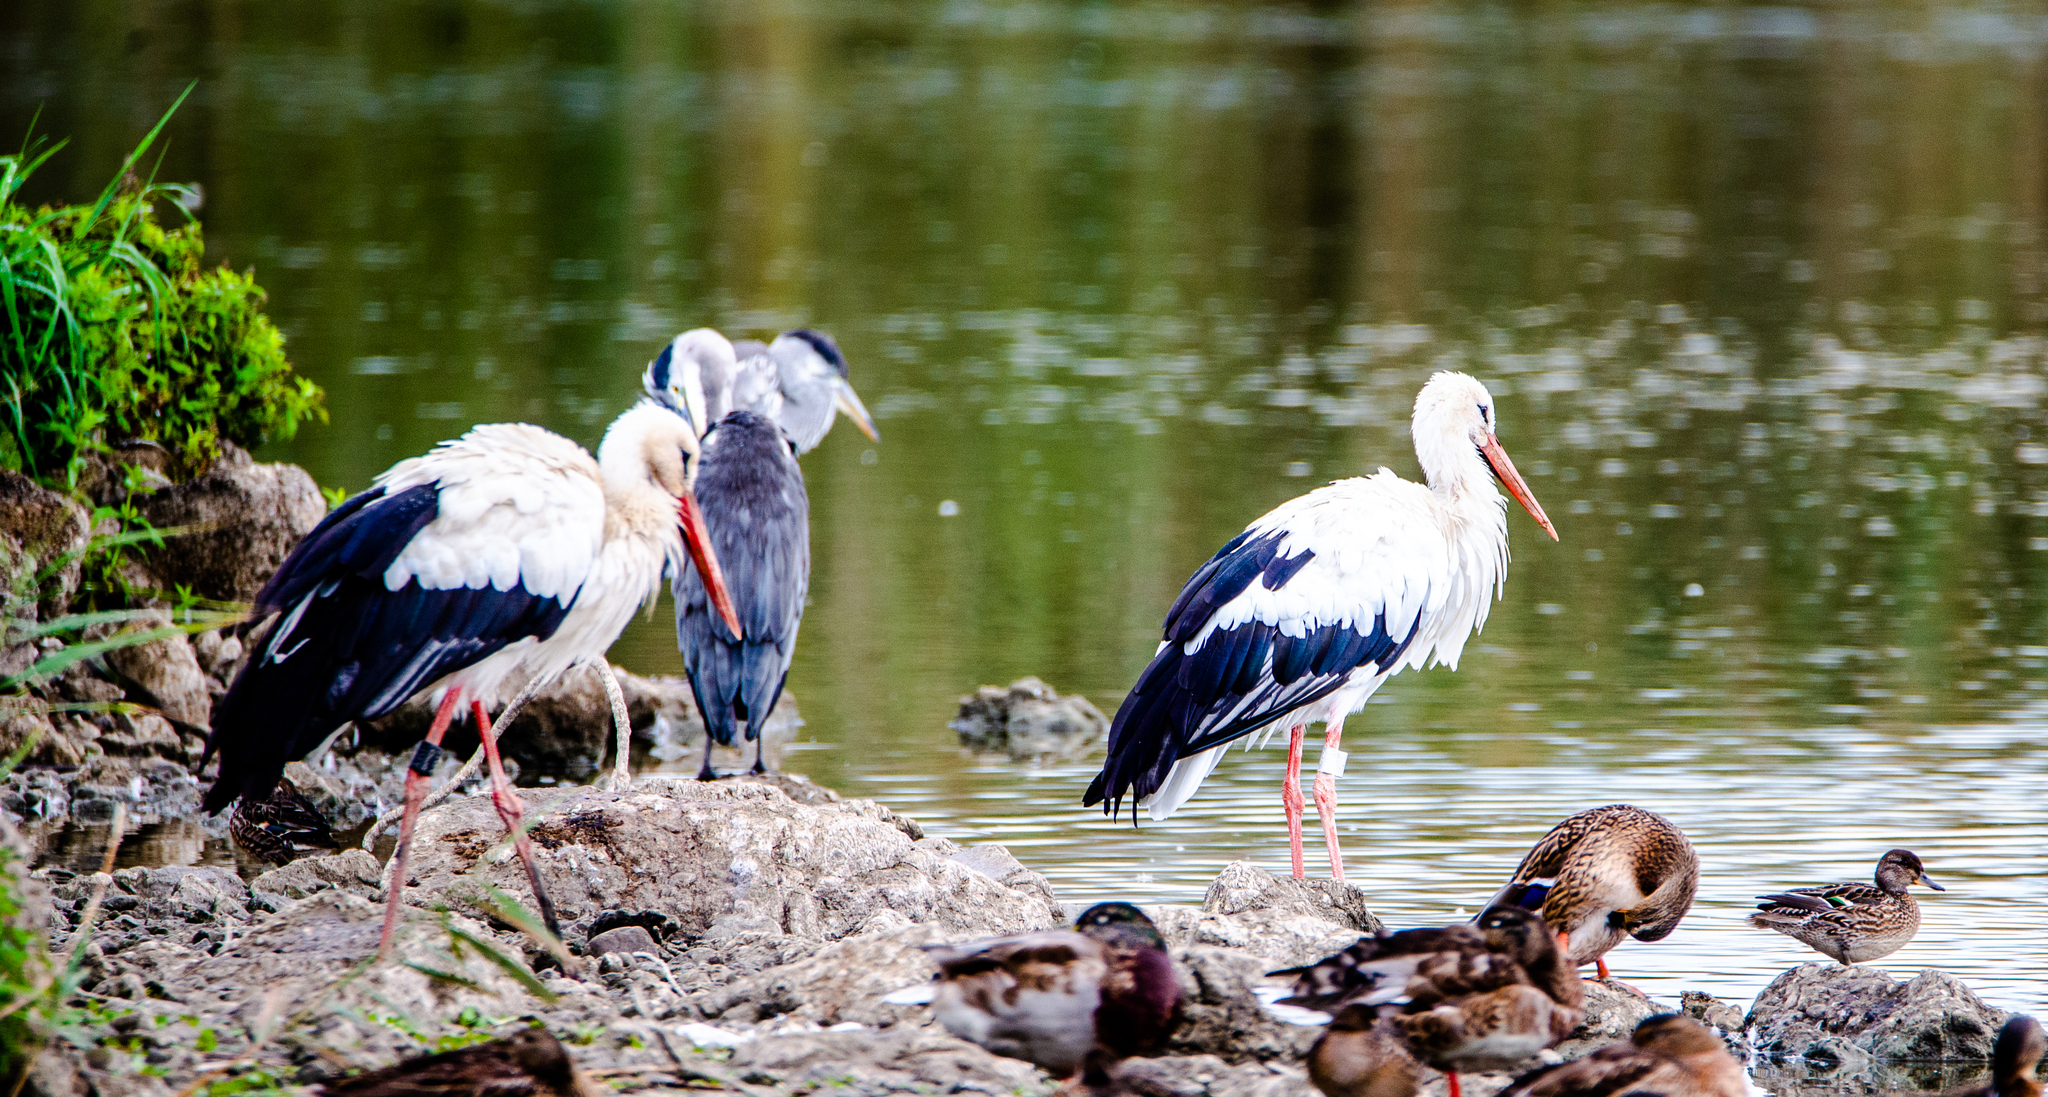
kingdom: Animalia
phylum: Chordata
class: Aves
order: Pelecaniformes
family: Ardeidae
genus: Ardea
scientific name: Ardea cinerea
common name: Grey heron
